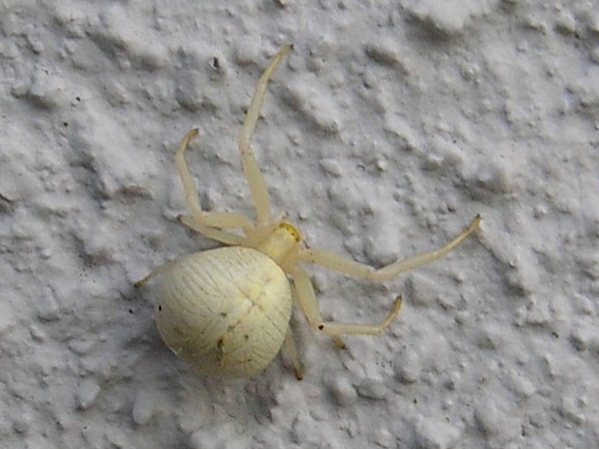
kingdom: Animalia
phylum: Arthropoda
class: Arachnida
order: Araneae
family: Thomisidae
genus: Misumena
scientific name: Misumena vatia
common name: Goldenrod crab spider
